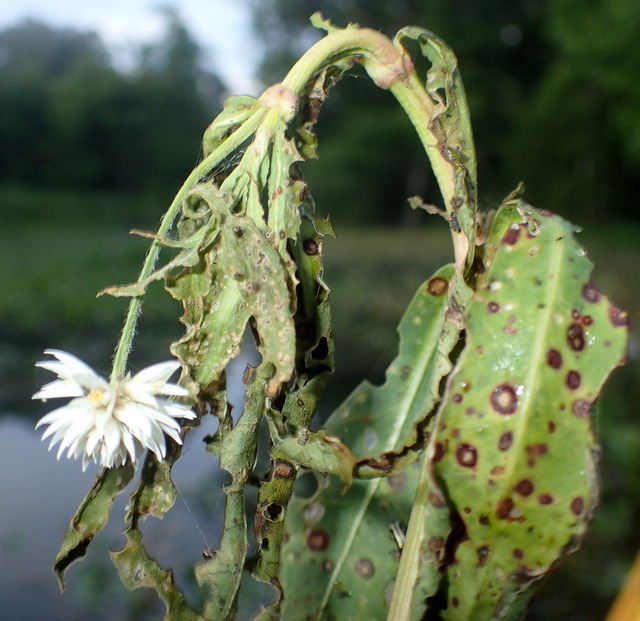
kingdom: Animalia
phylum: Arthropoda
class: Insecta
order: Lepidoptera
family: Pyralidae
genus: Macrorrhinia
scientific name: Macrorrhinia endonephele
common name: Alligator weed stemborer moth
